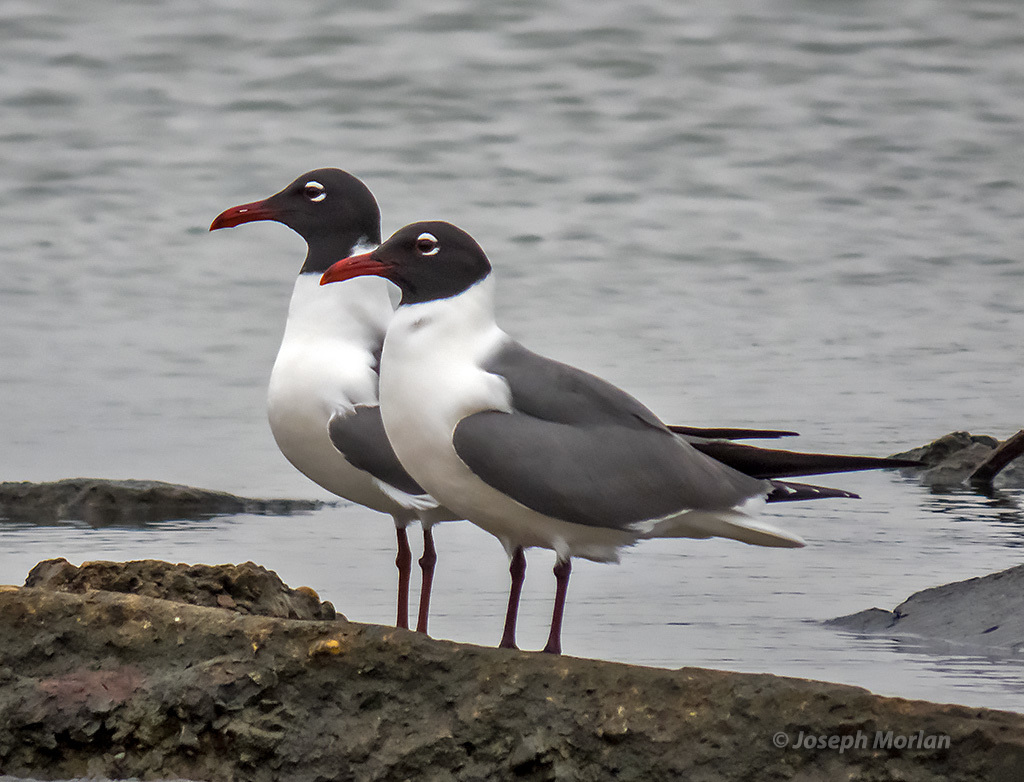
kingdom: Animalia
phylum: Chordata
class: Aves
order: Charadriiformes
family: Laridae
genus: Leucophaeus
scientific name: Leucophaeus atricilla
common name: Laughing gull
